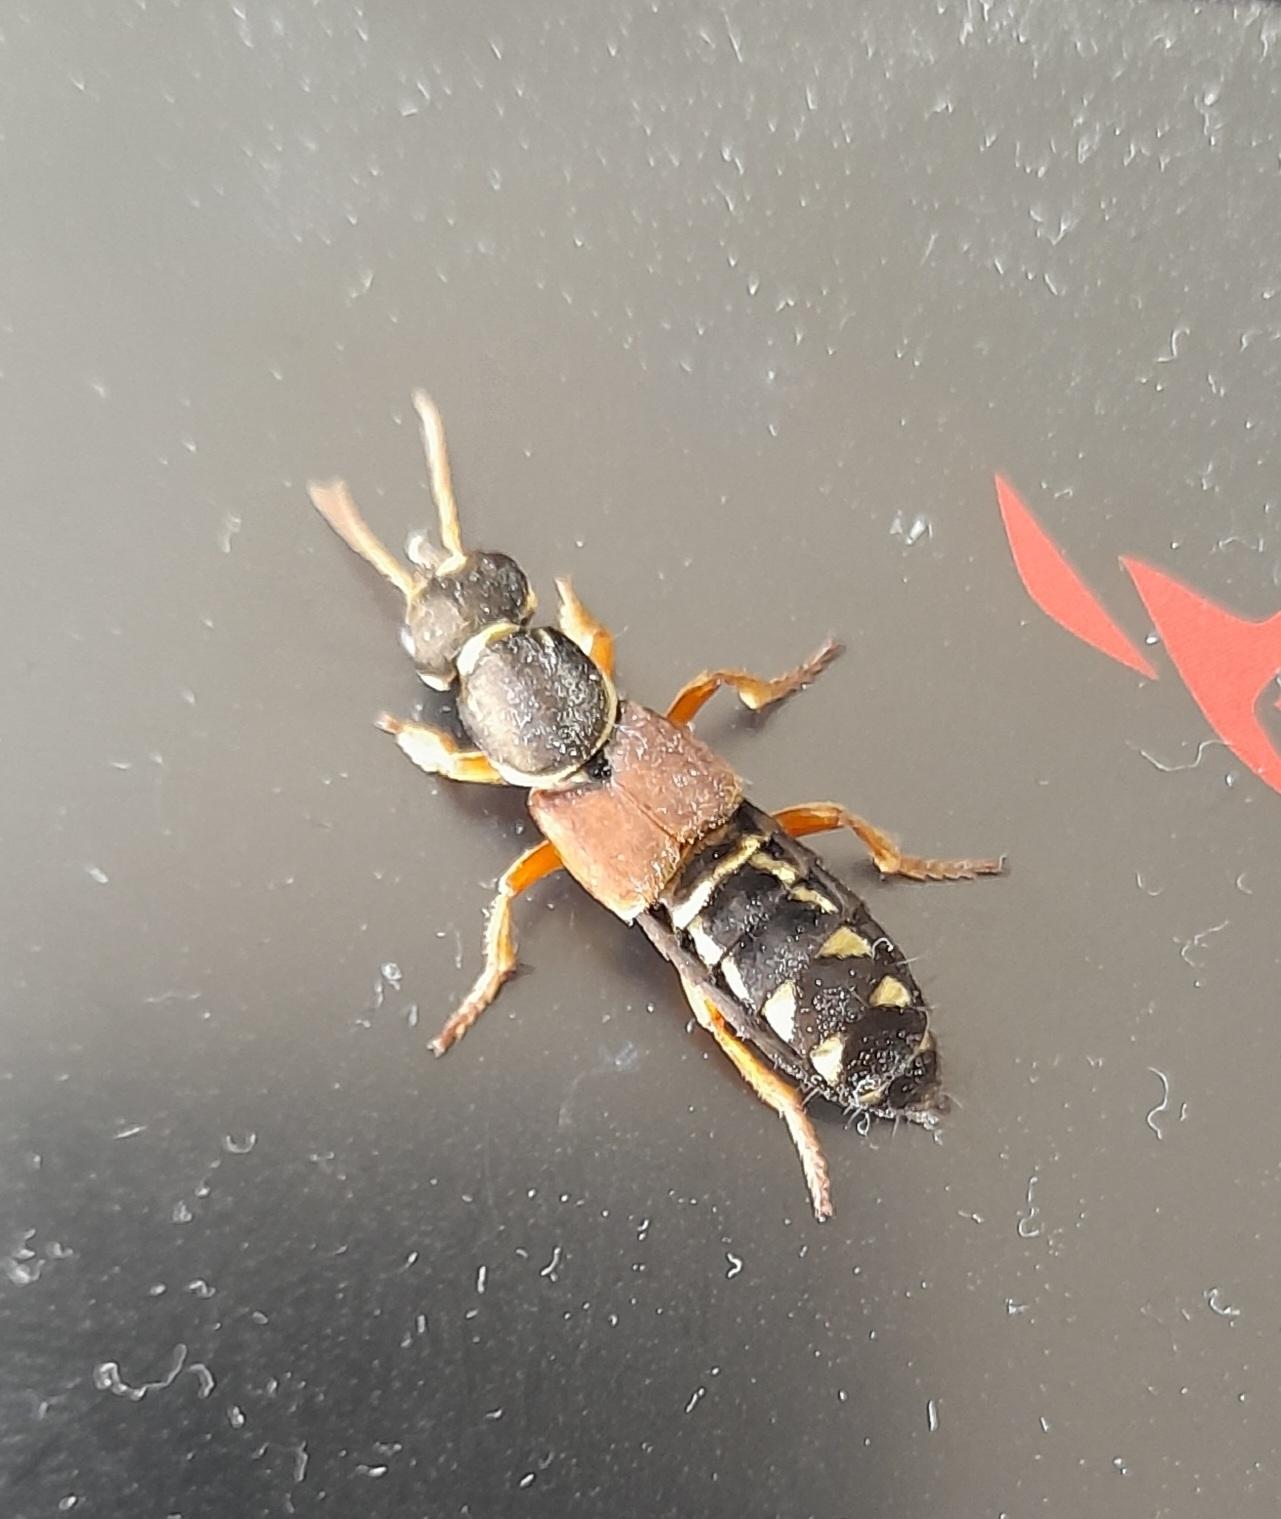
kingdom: Animalia
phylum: Arthropoda
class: Insecta
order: Coleoptera
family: Staphylinidae
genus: Staphylinus
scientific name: Staphylinus caesareus
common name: Staph beetle
